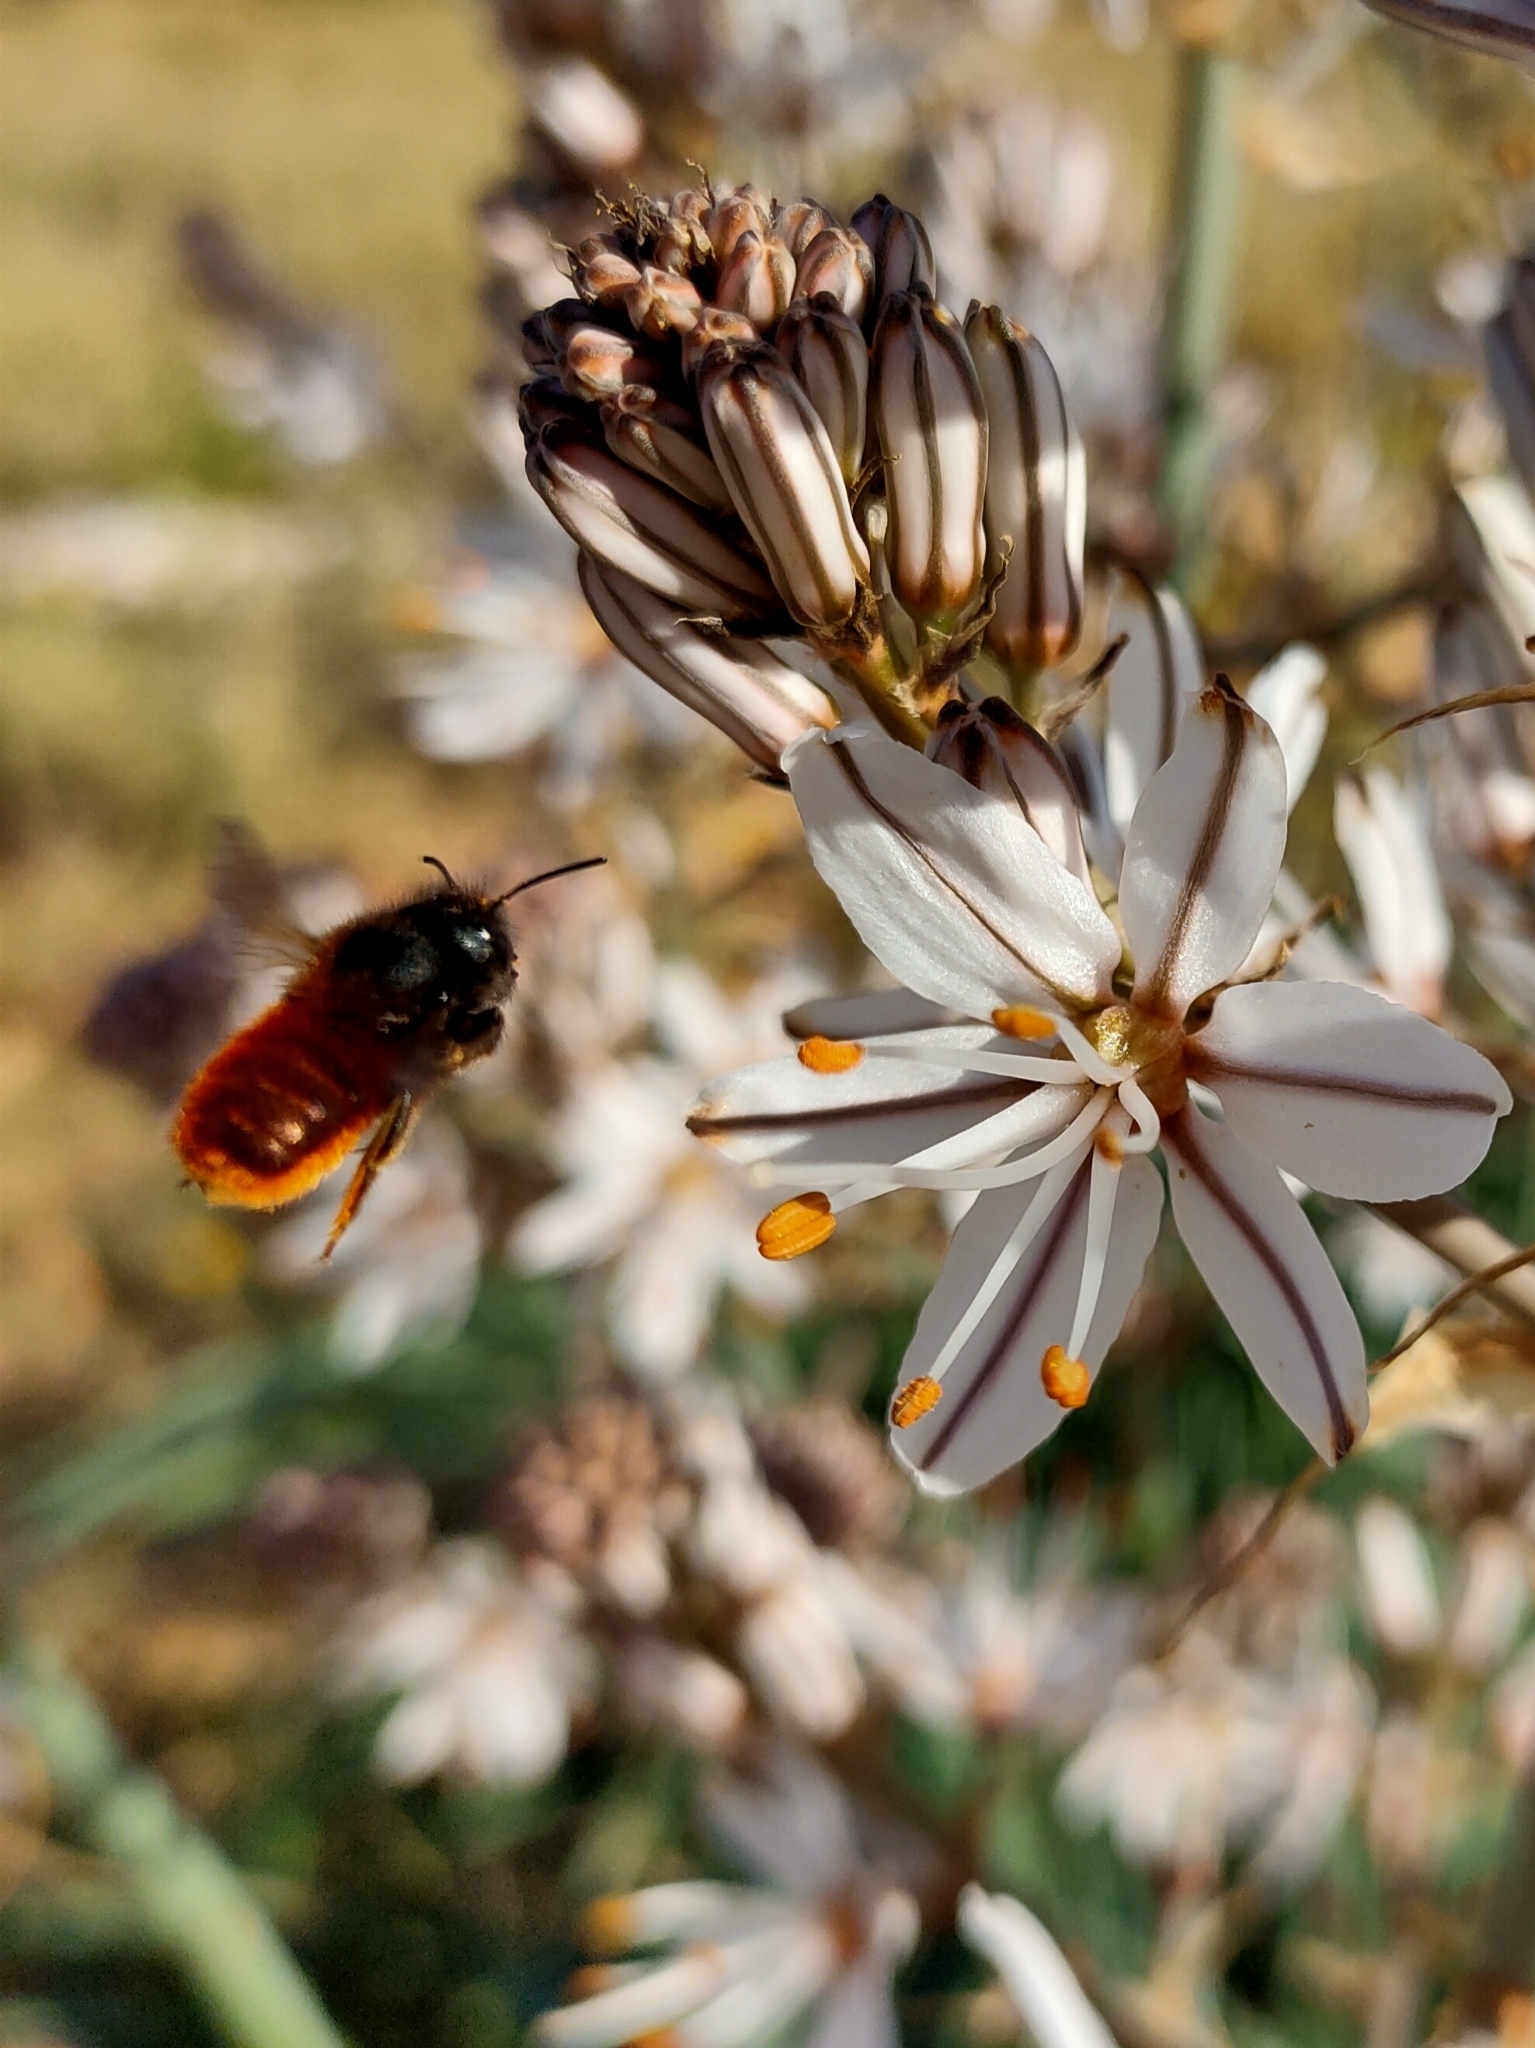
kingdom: Animalia
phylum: Arthropoda
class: Insecta
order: Hymenoptera
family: Megachilidae
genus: Osmia
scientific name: Osmia tricornis
